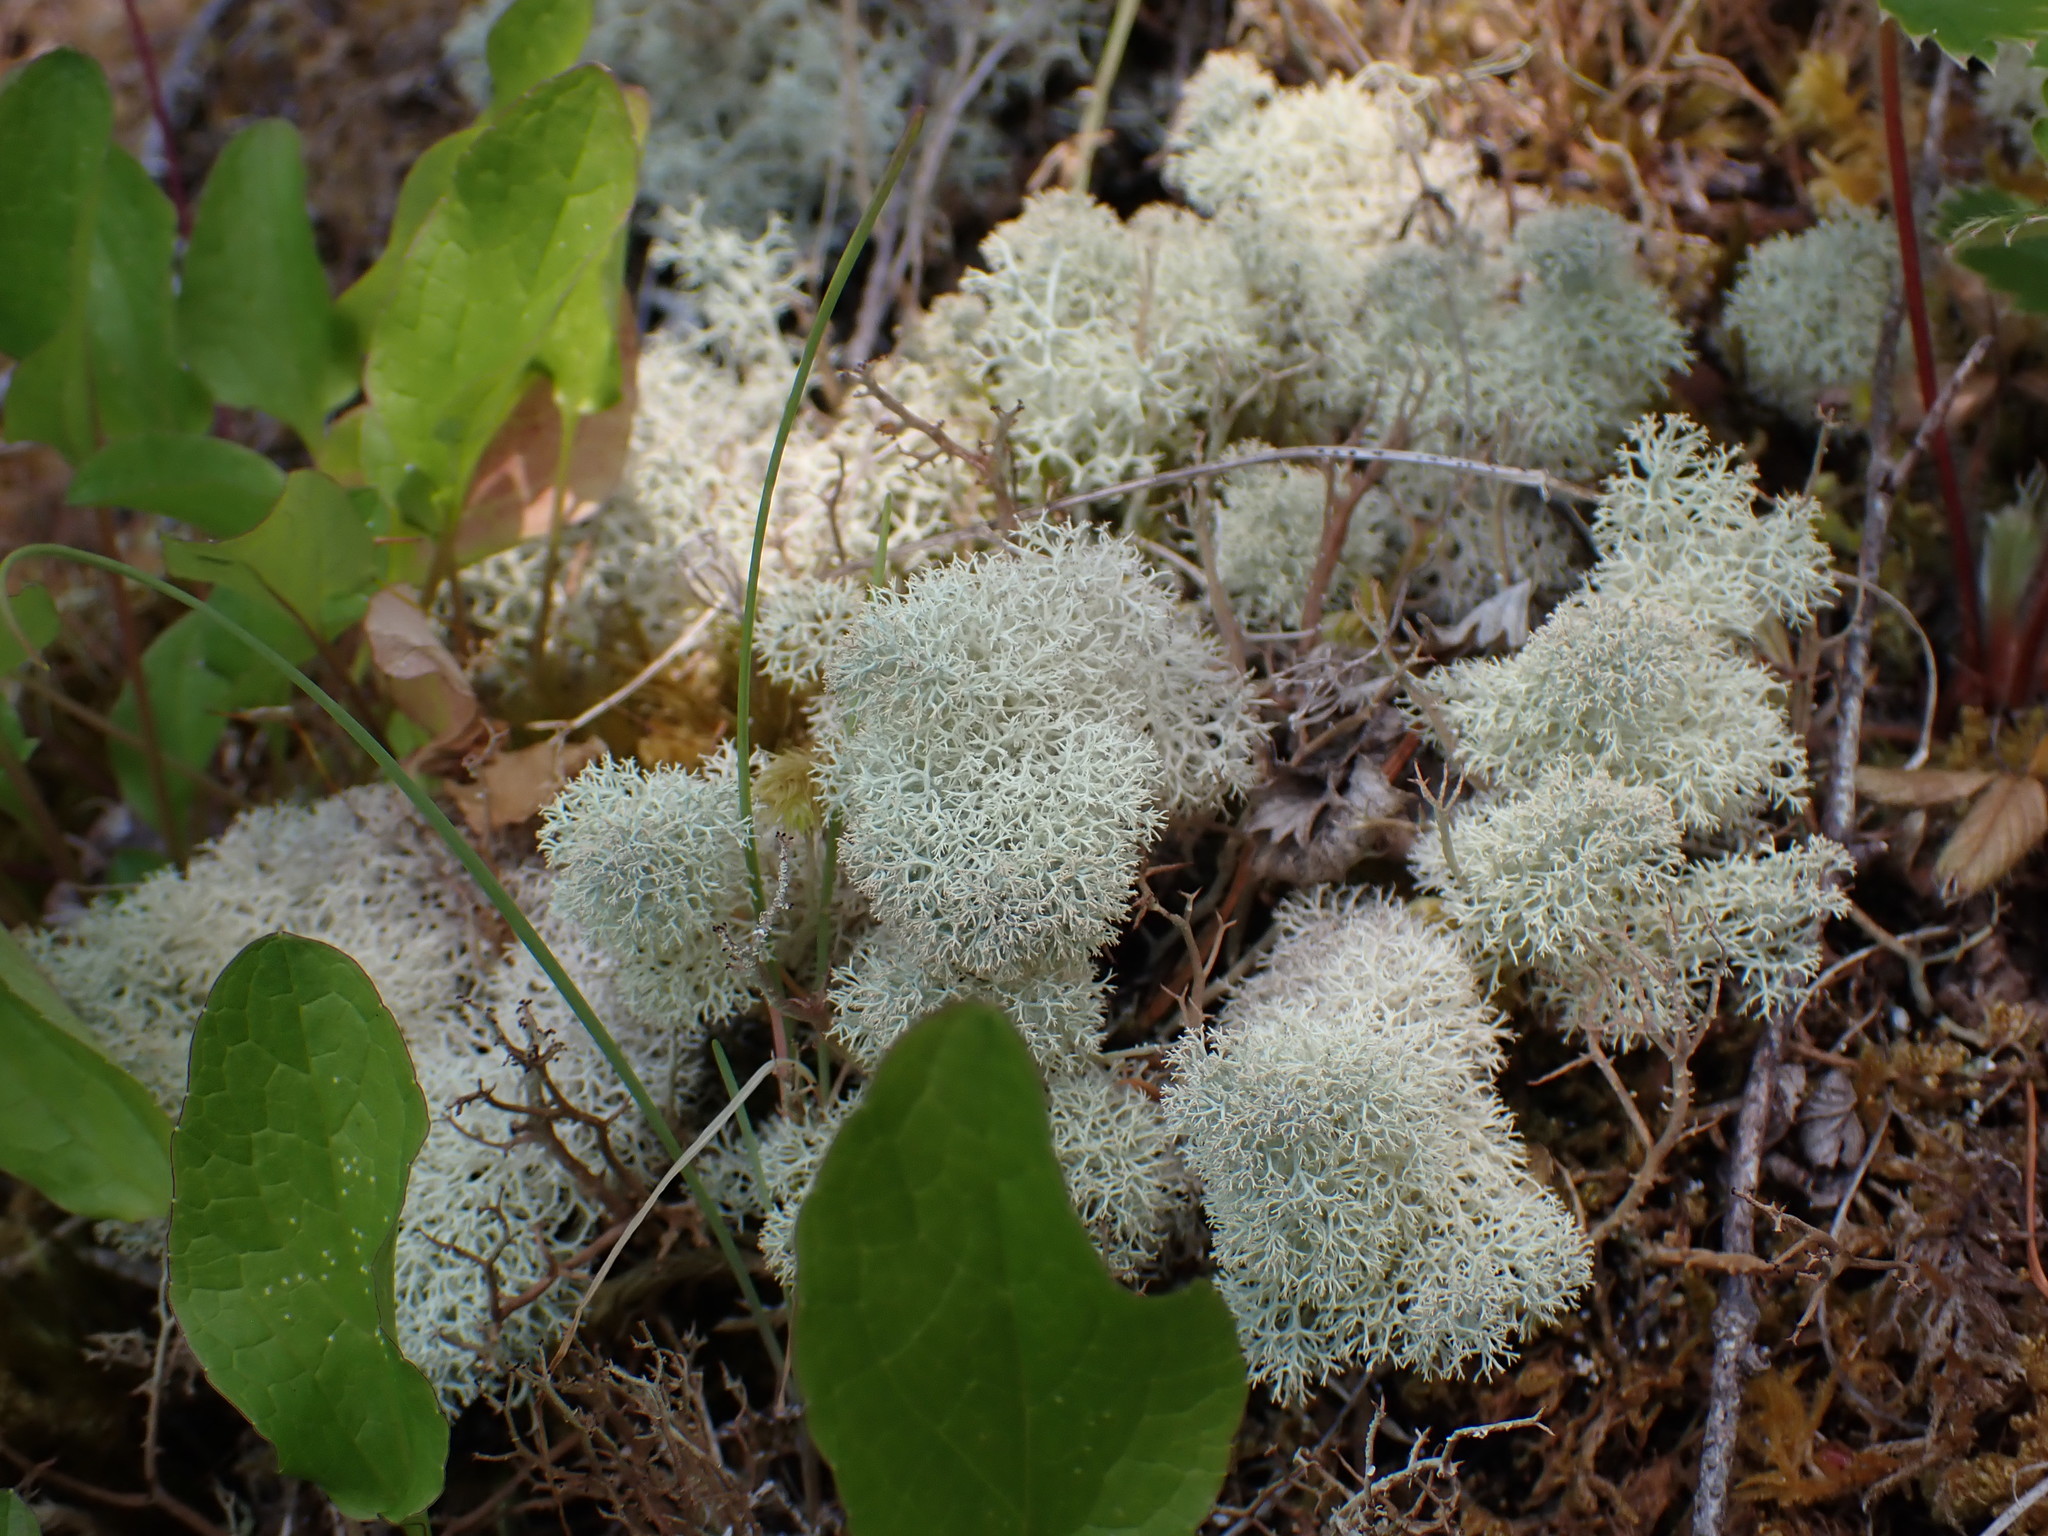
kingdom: Fungi
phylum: Ascomycota
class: Lecanoromycetes
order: Lecanorales
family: Cladoniaceae
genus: Cladonia
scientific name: Cladonia portentosa
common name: Reindeer lichen
